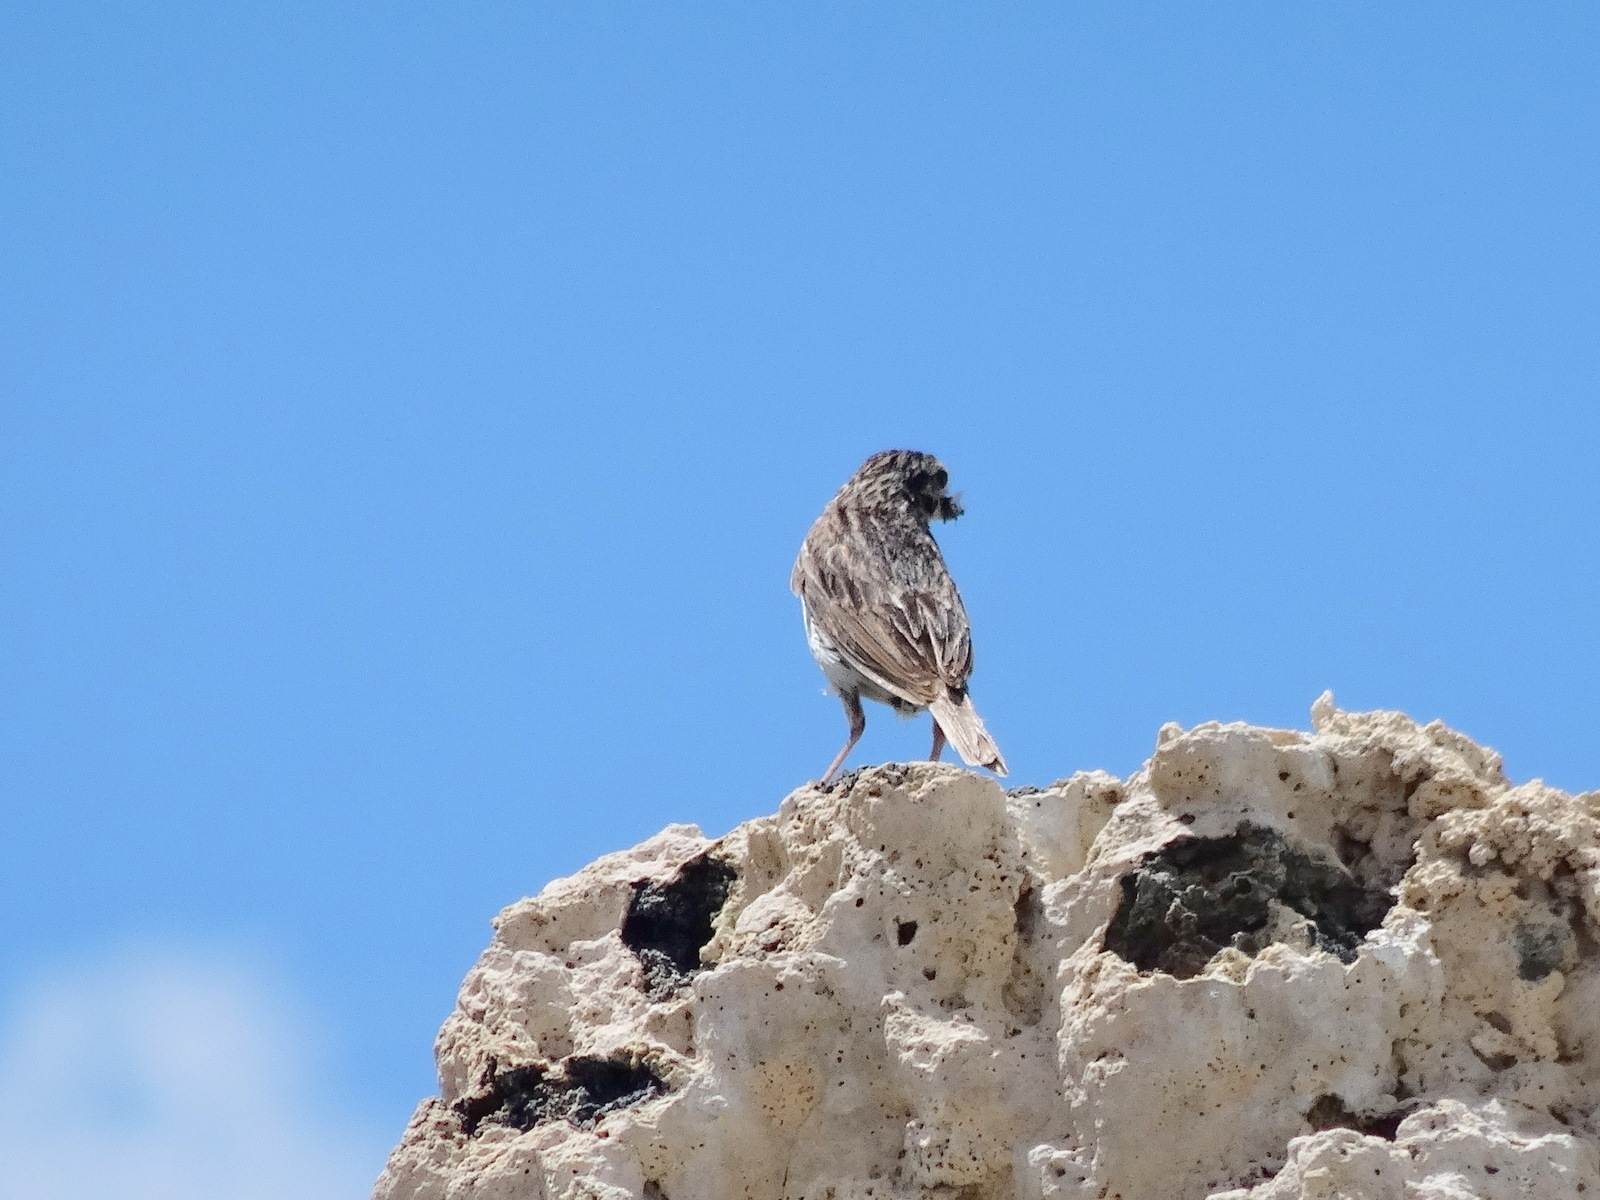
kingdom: Animalia
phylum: Chordata
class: Aves
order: Passeriformes
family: Passerellidae
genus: Passerculus
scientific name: Passerculus sandwichensis
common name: Savannah sparrow
